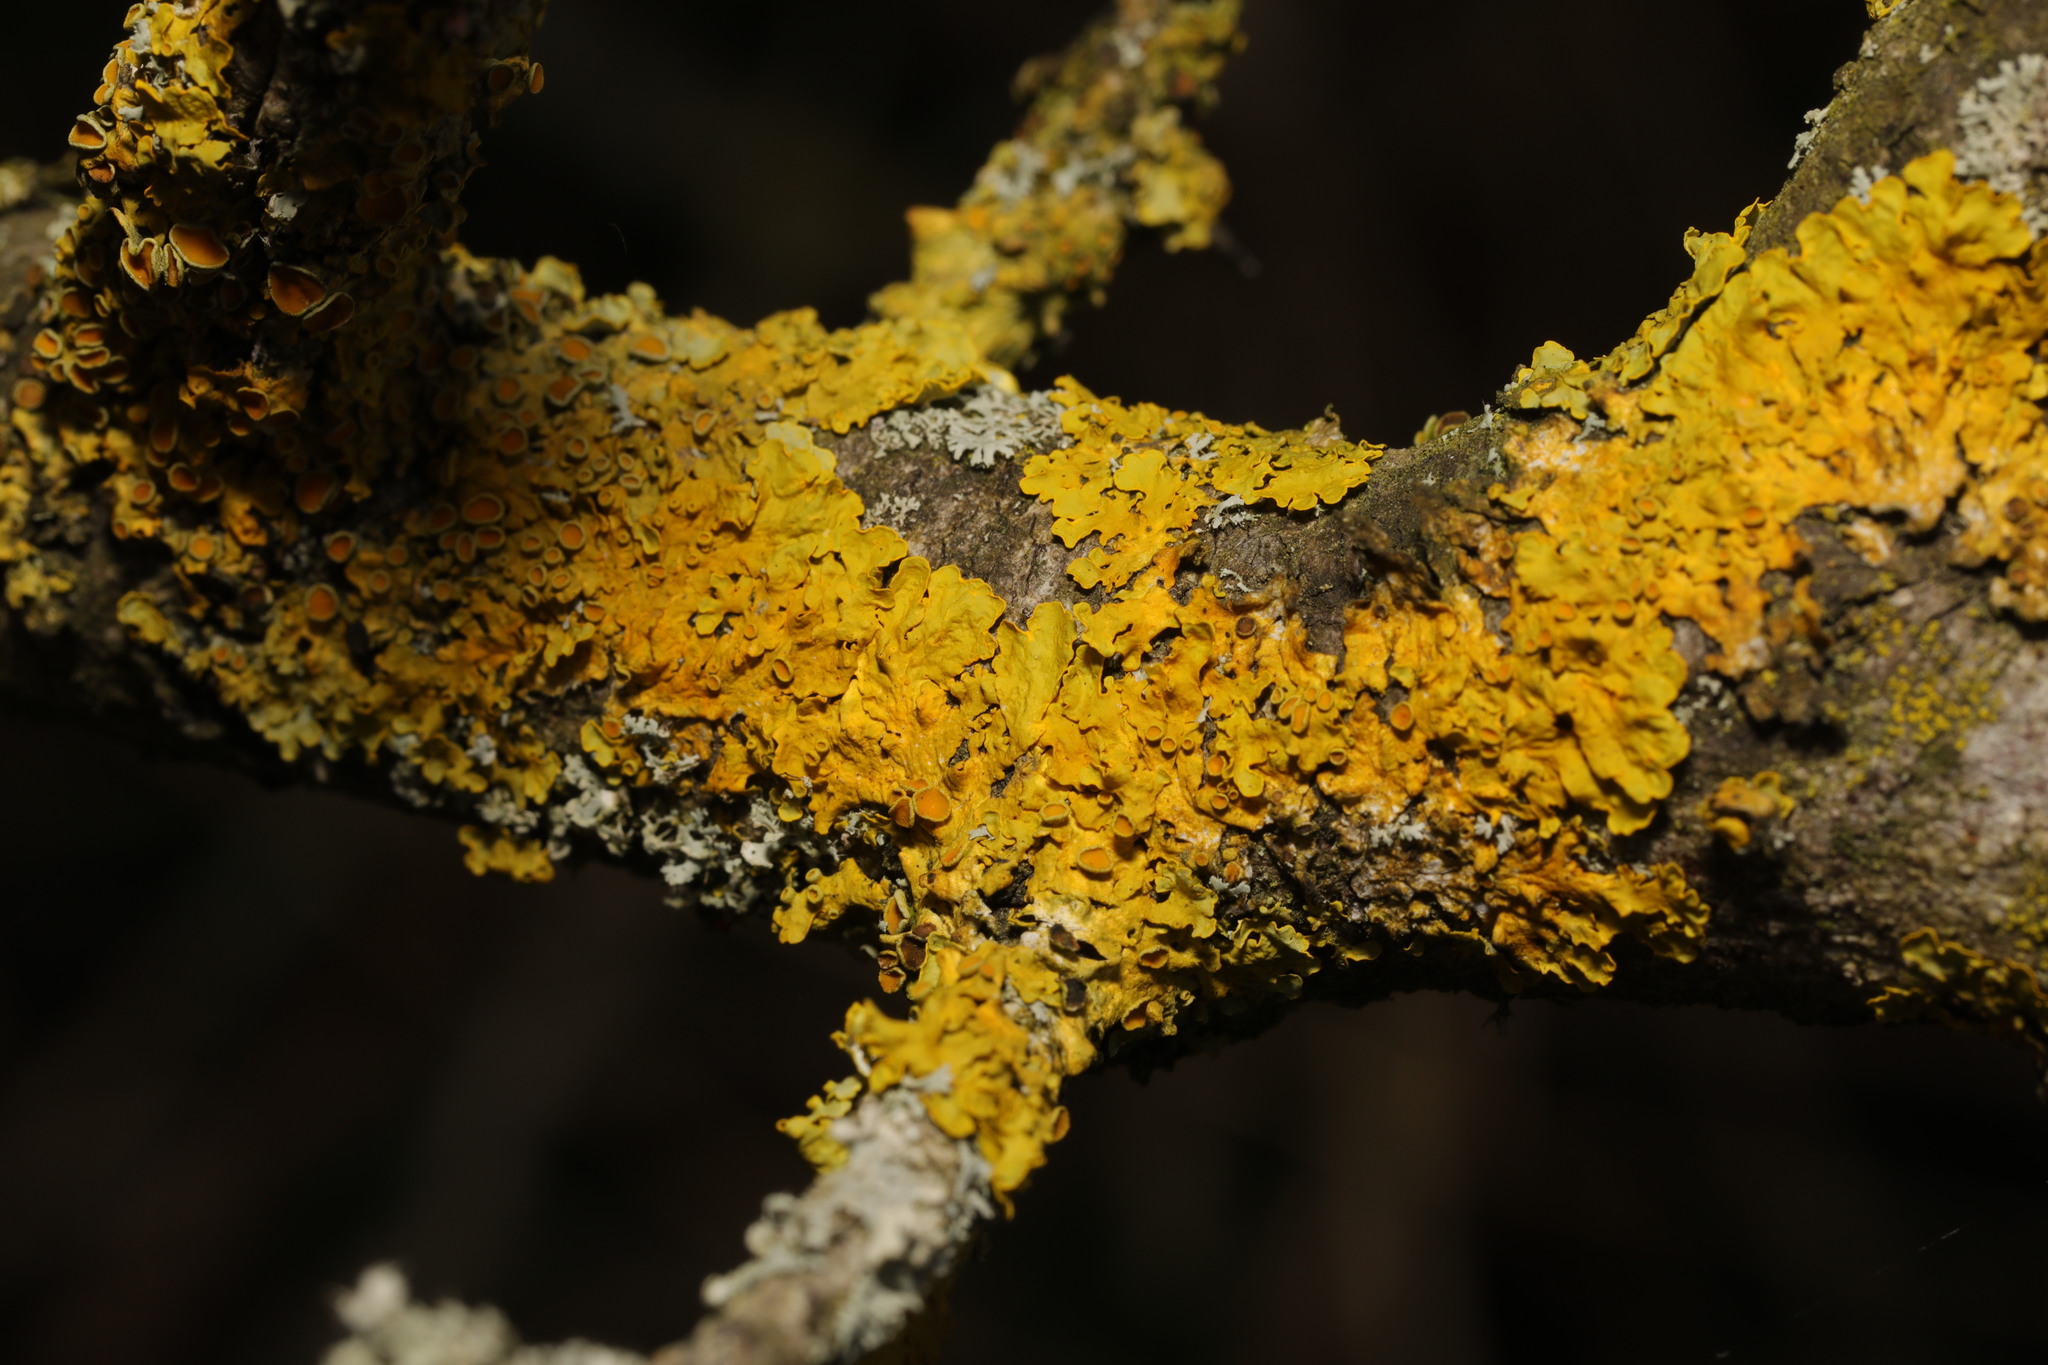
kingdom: Fungi
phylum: Ascomycota
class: Lecanoromycetes
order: Teloschistales
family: Teloschistaceae
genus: Xanthoria
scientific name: Xanthoria parietina
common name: Common orange lichen
